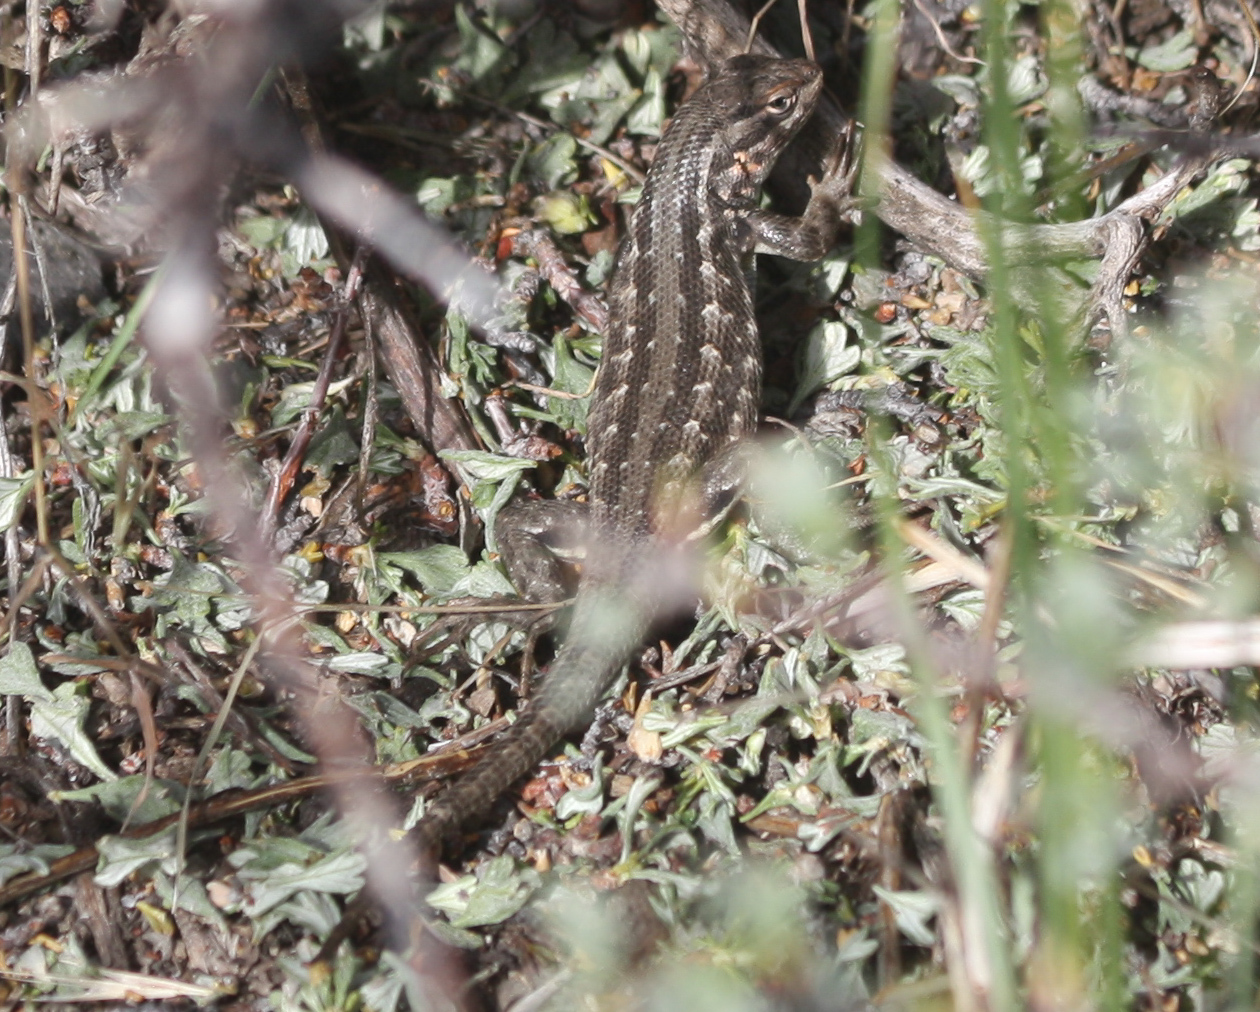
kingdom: Animalia
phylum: Chordata
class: Squamata
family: Phrynosomatidae
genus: Sceloporus
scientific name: Sceloporus graciosus
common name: Sagebrush lizard
